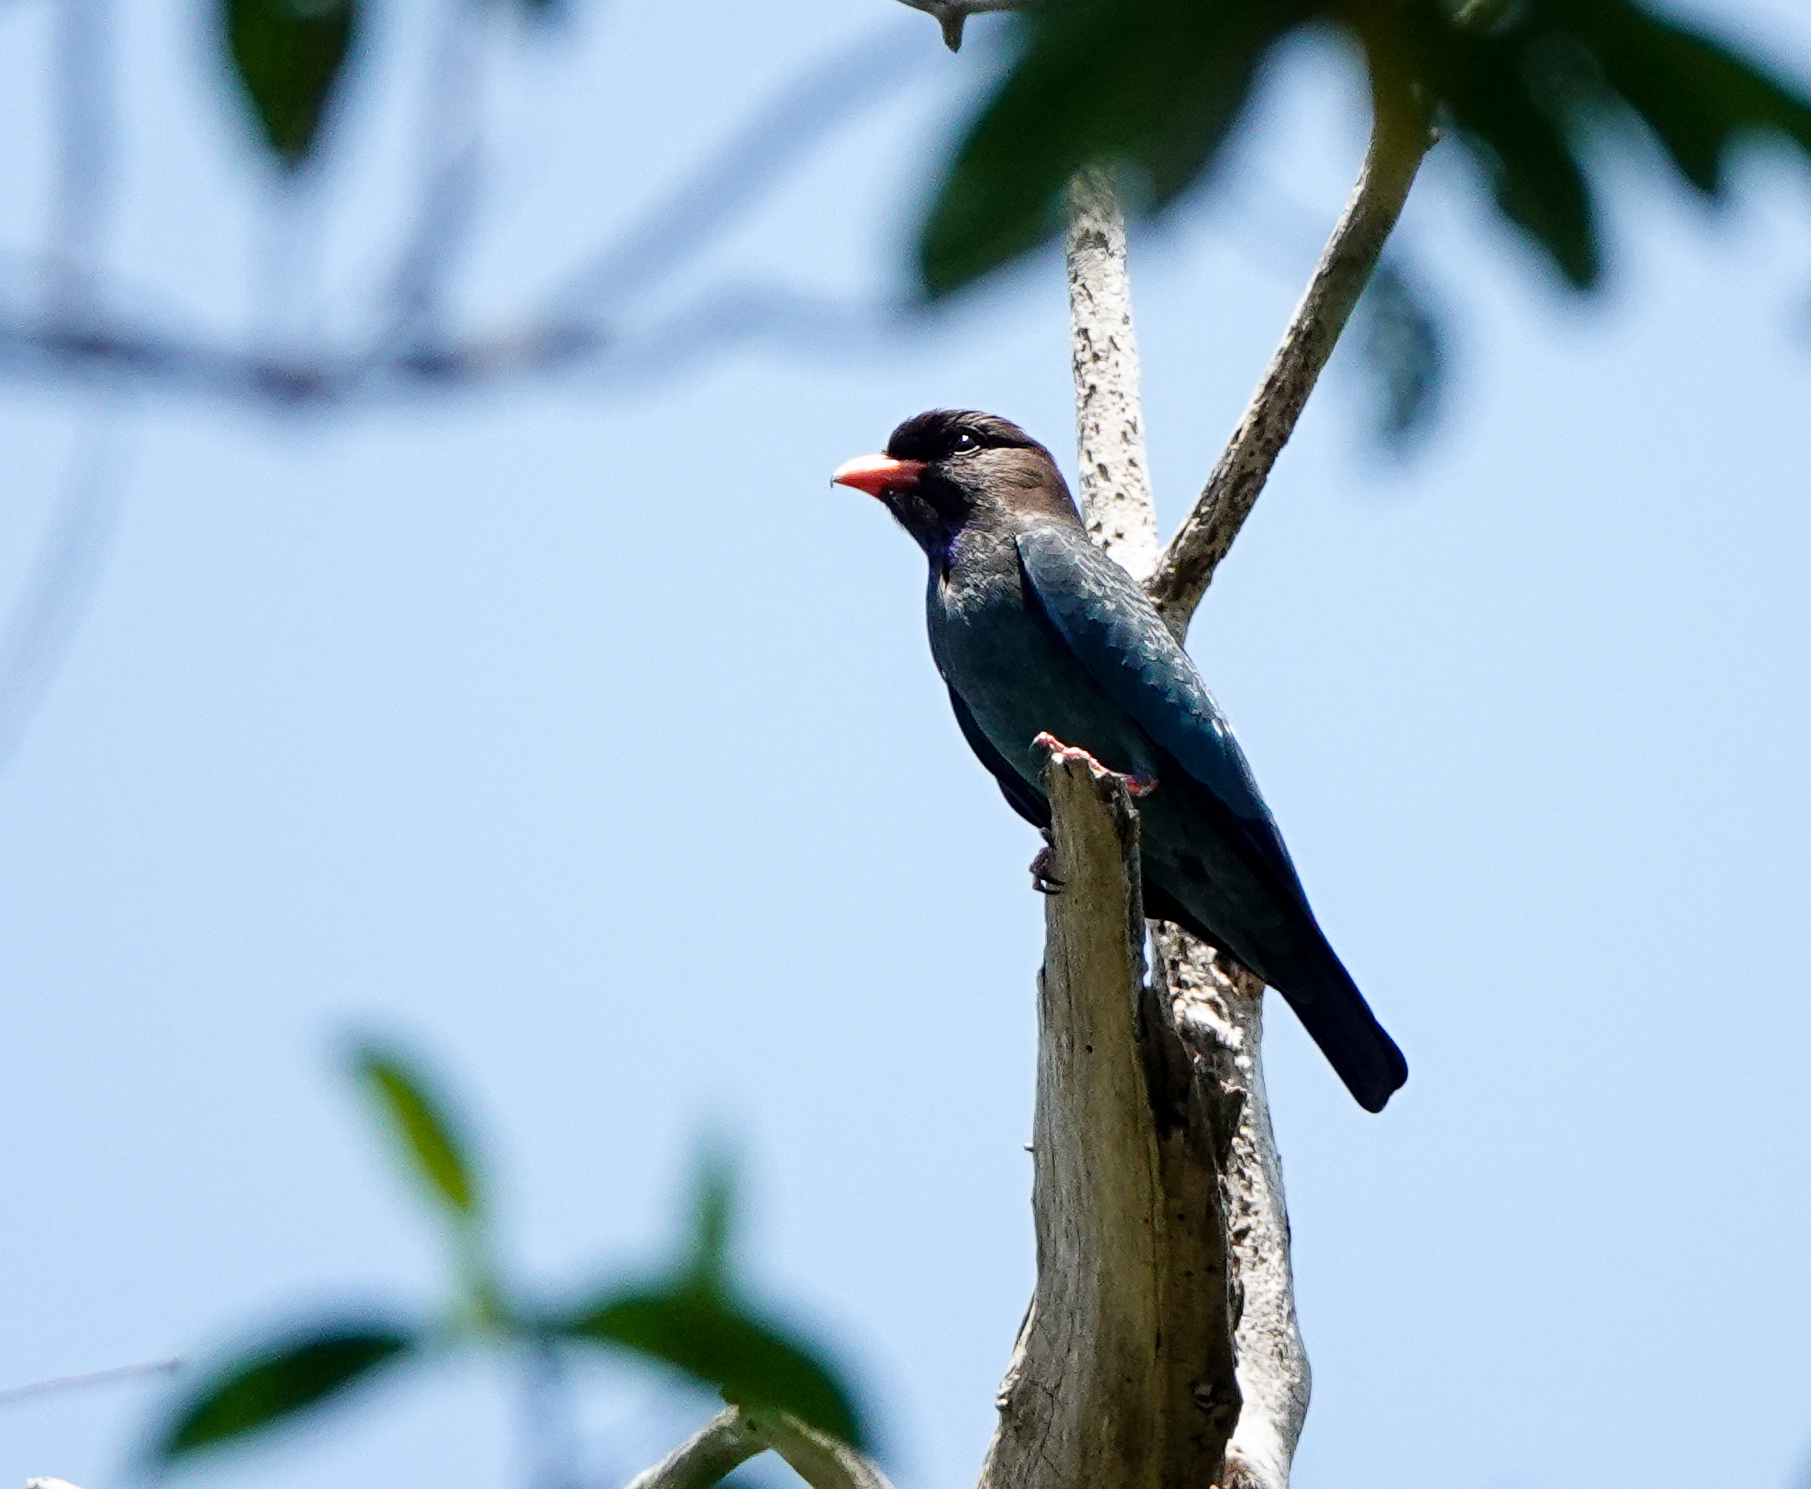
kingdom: Animalia
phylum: Chordata
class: Aves
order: Coraciiformes
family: Coraciidae
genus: Eurystomus
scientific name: Eurystomus orientalis
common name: Oriental dollarbird
